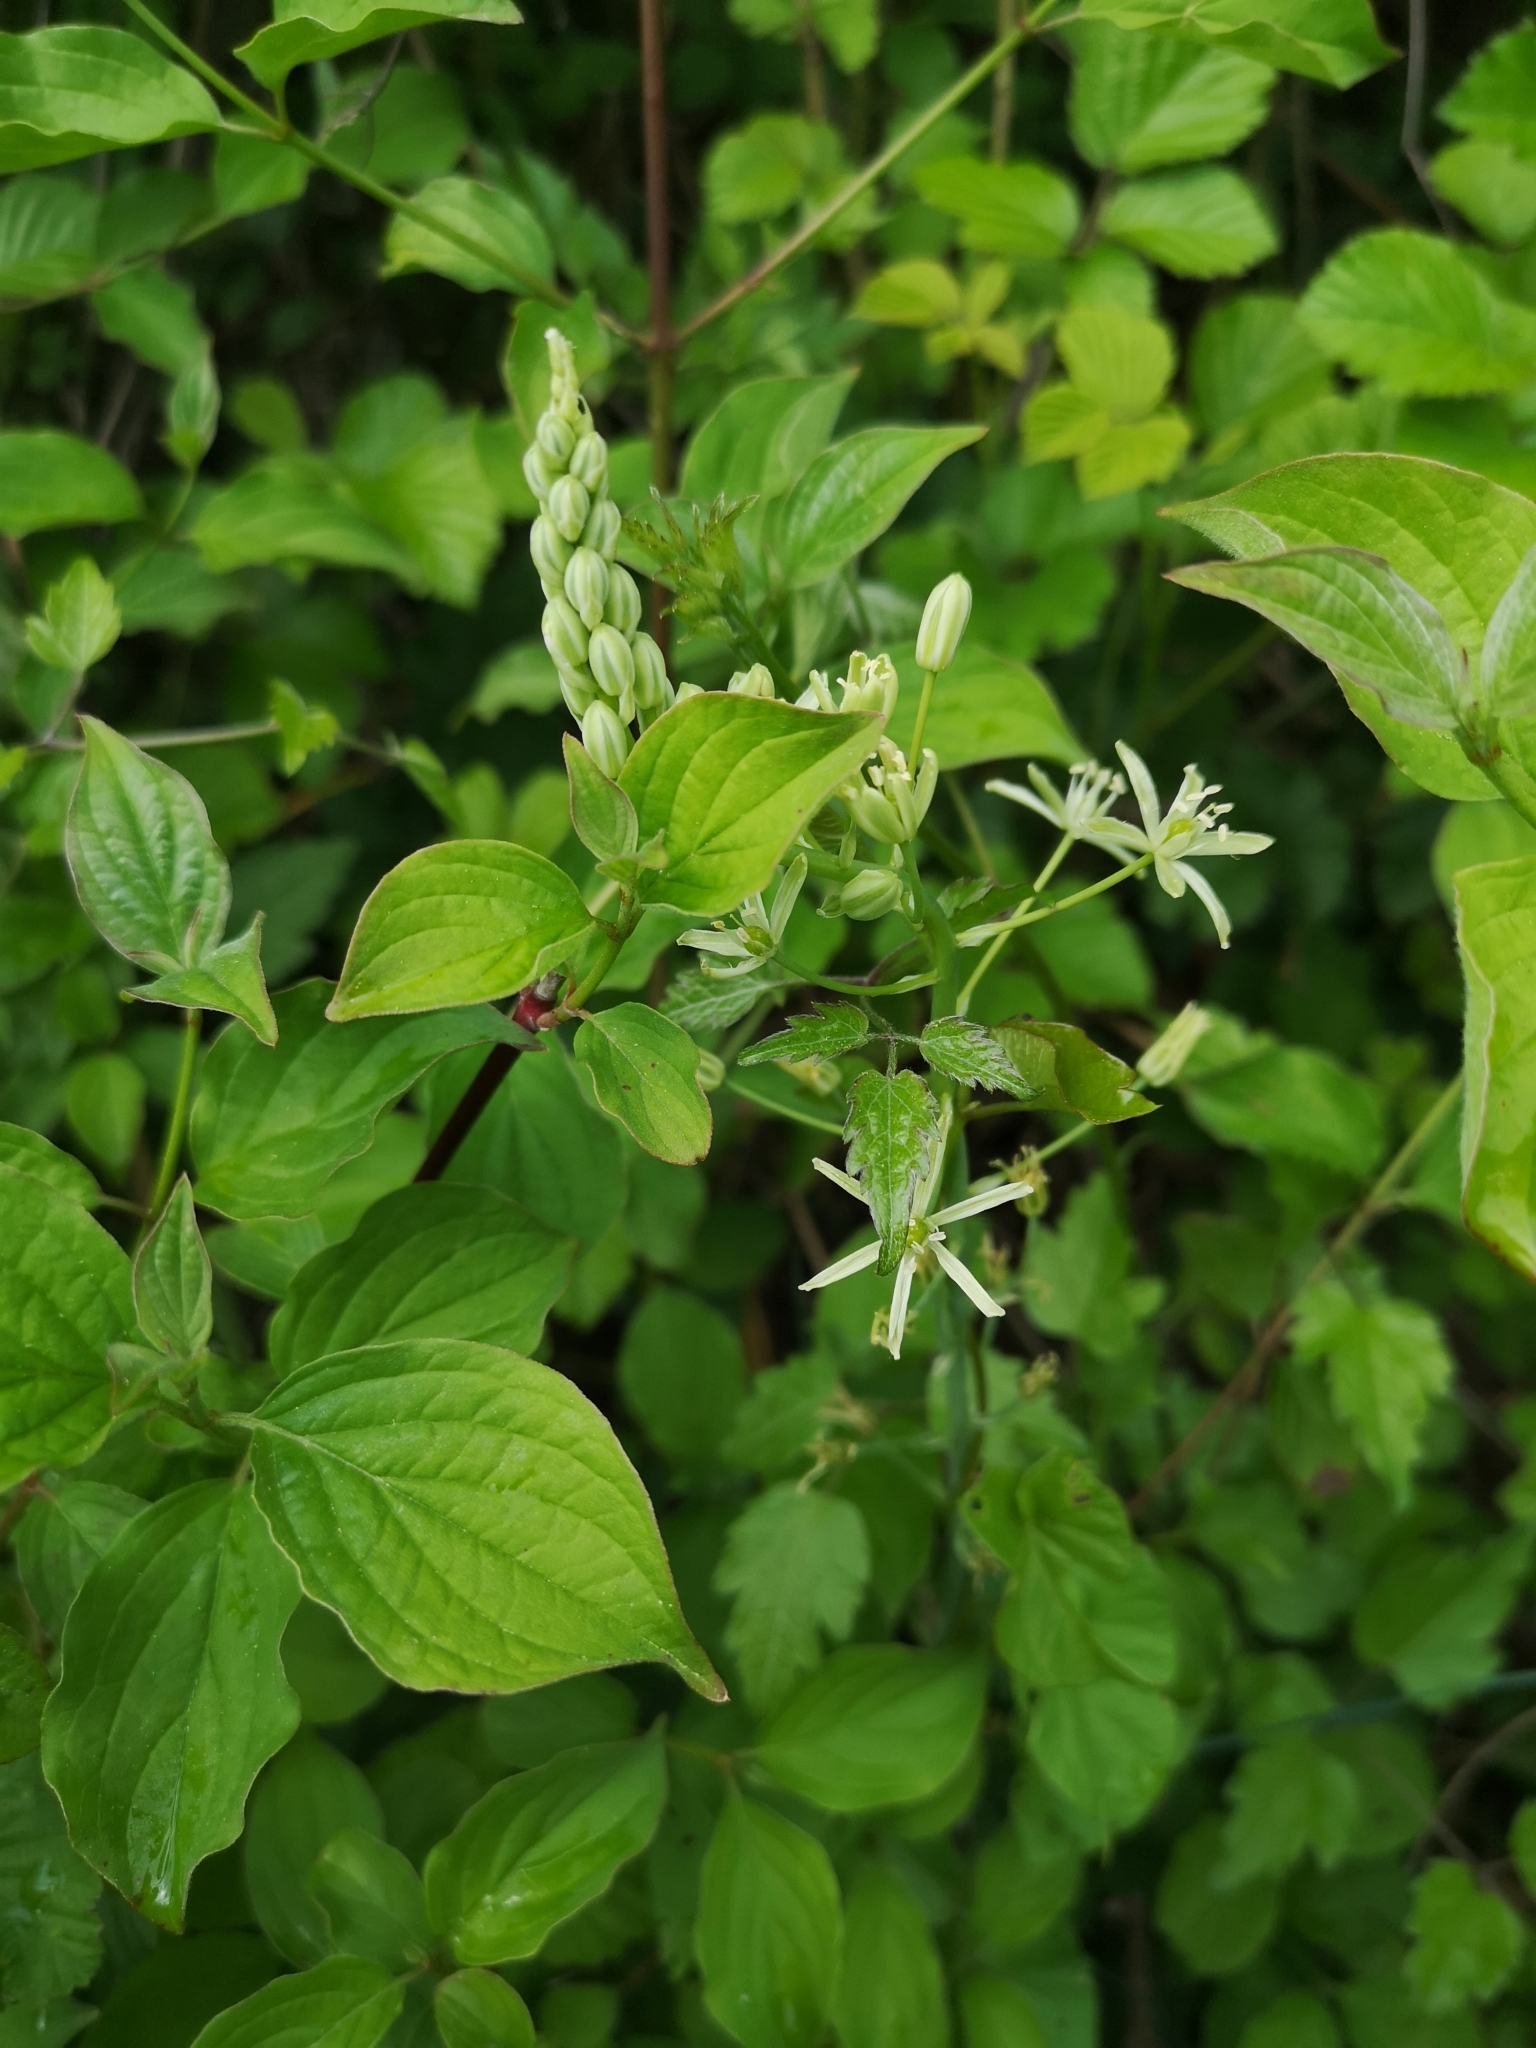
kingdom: Plantae
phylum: Tracheophyta
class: Liliopsida
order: Asparagales
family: Asparagaceae
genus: Ornithogalum
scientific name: Ornithogalum pyrenaicum
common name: Spiked star-of-bethlehem
